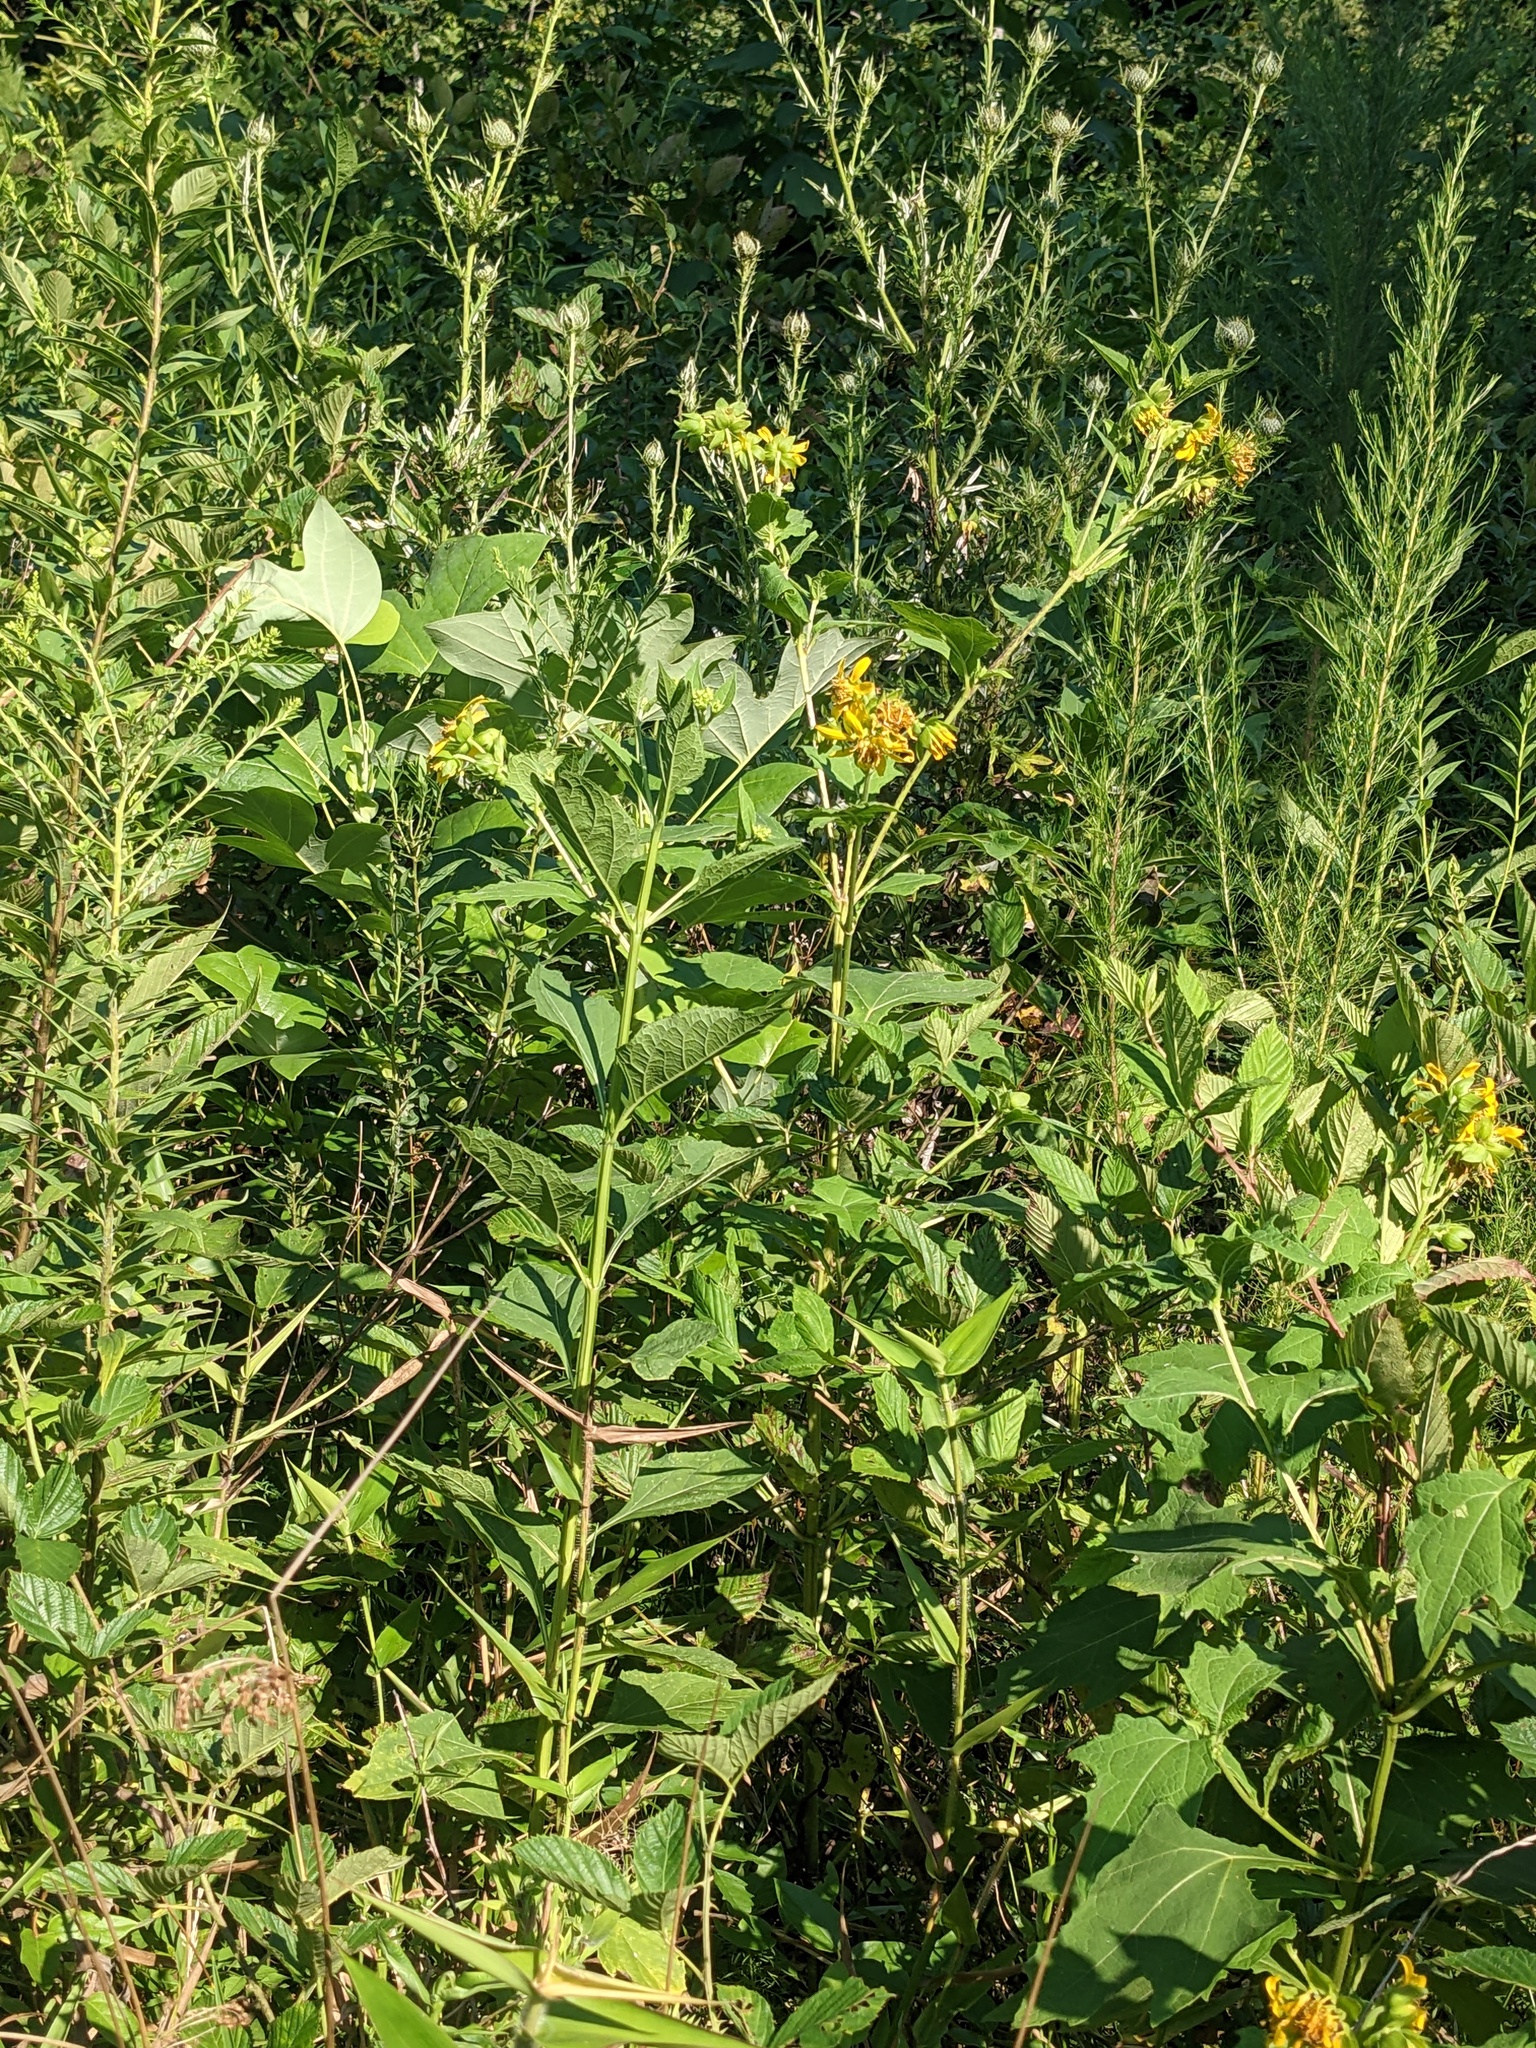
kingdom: Plantae
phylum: Tracheophyta
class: Magnoliopsida
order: Asterales
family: Asteraceae
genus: Verbesina
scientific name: Verbesina occidentalis
